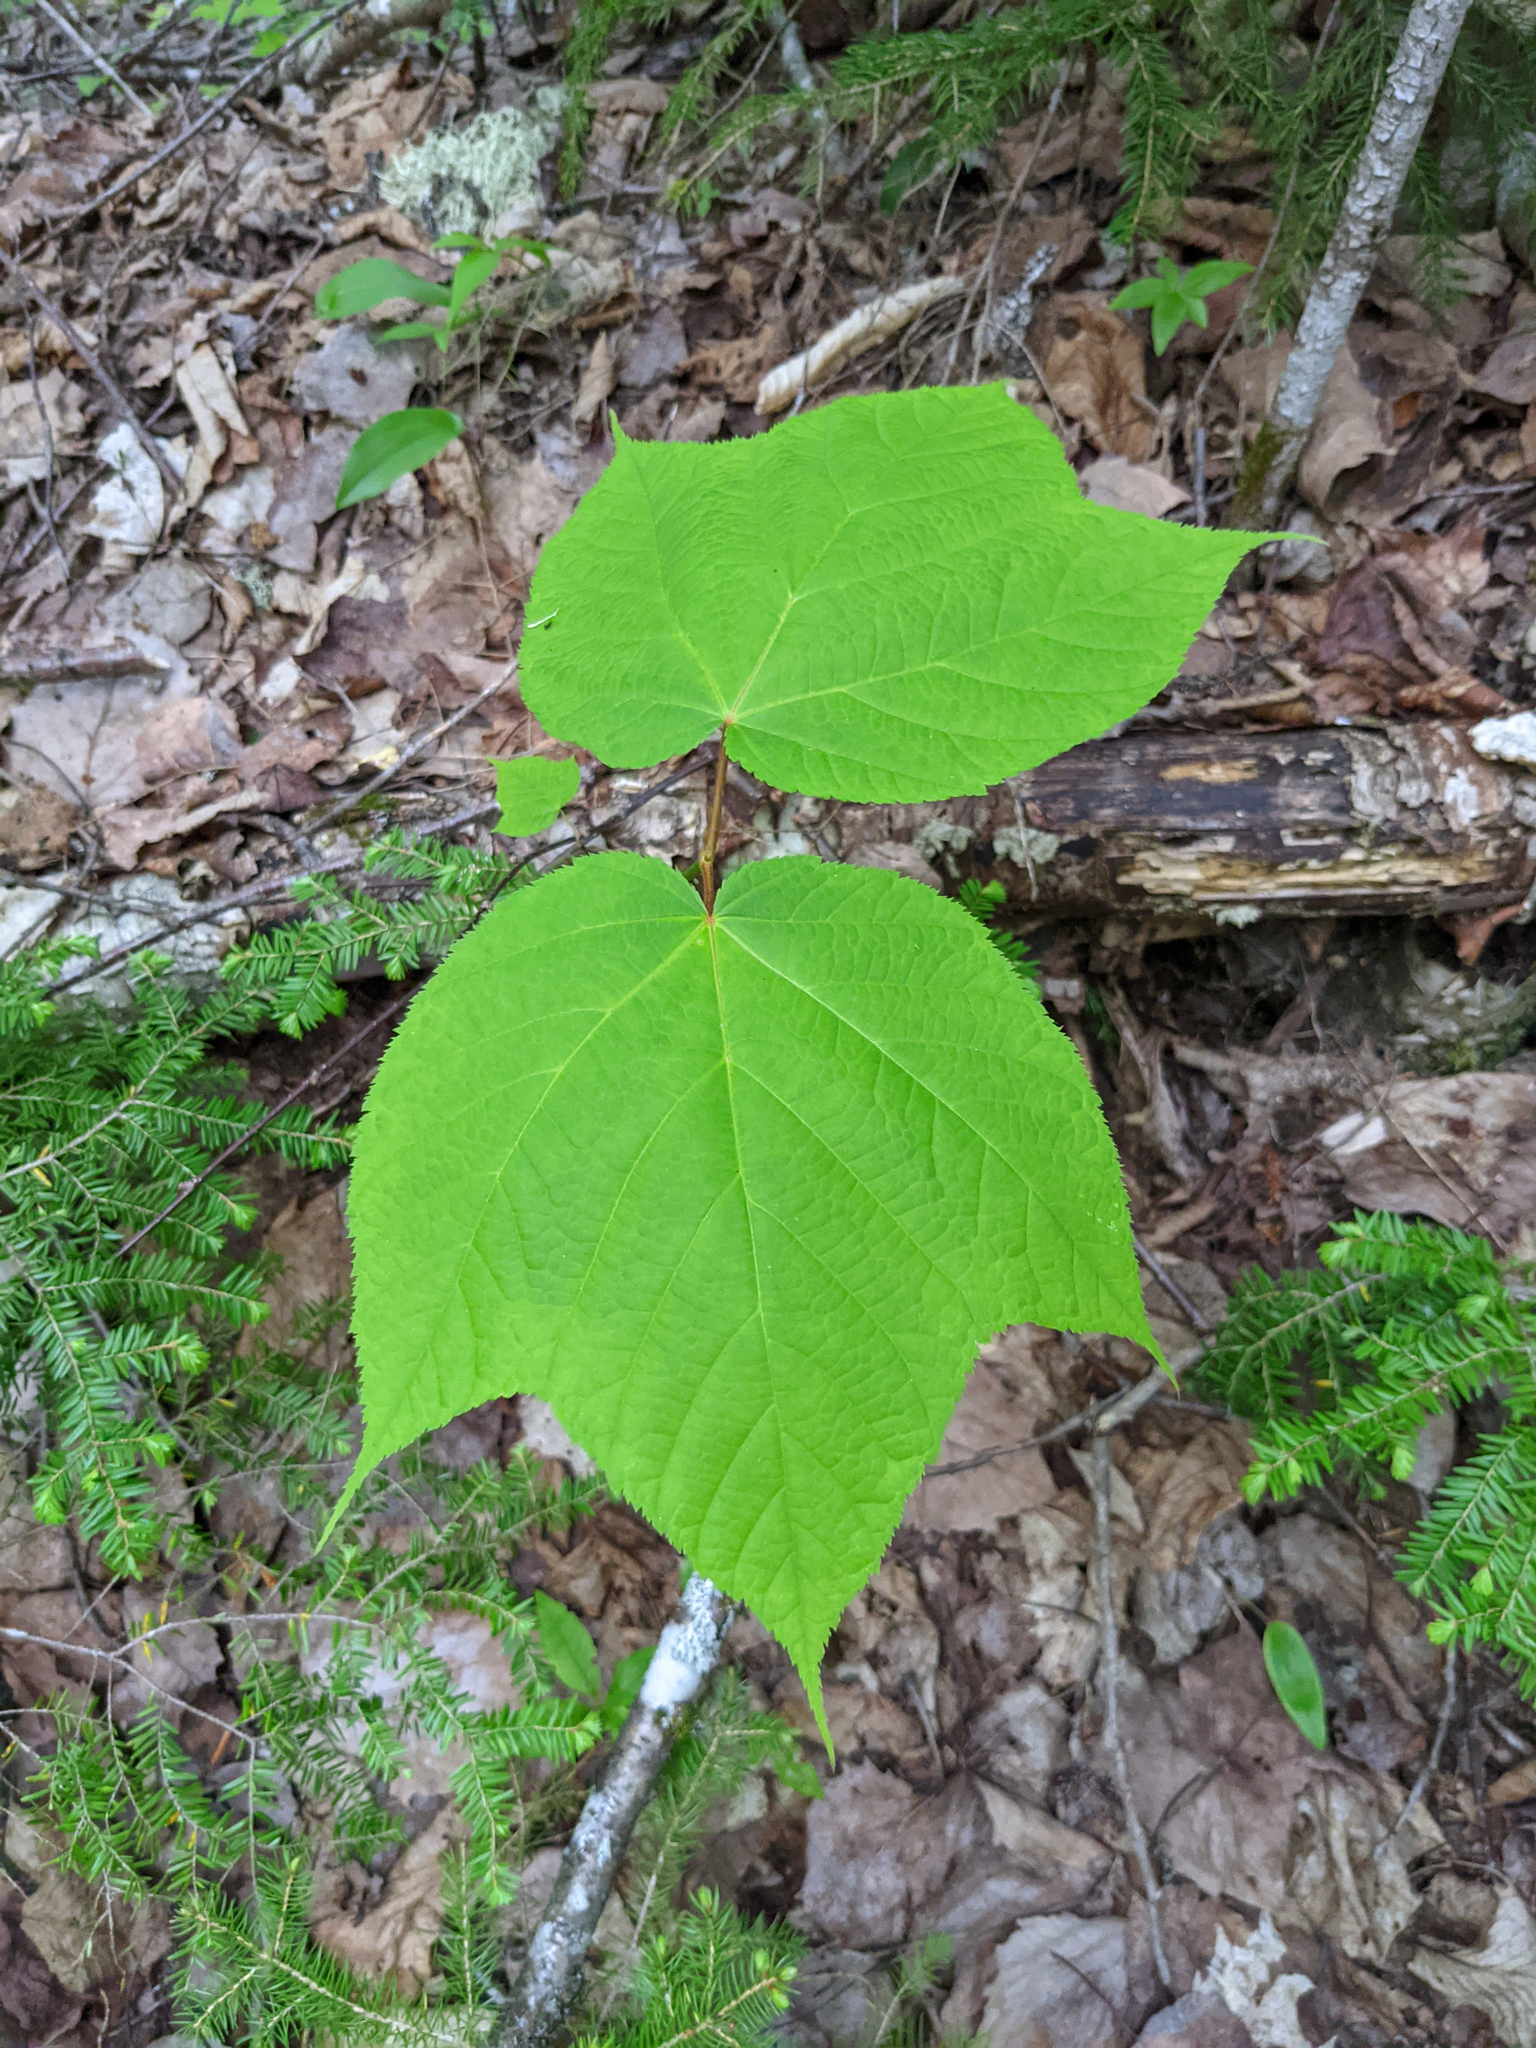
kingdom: Plantae
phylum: Tracheophyta
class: Magnoliopsida
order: Sapindales
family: Sapindaceae
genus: Acer
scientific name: Acer pensylvanicum
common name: Moosewood
